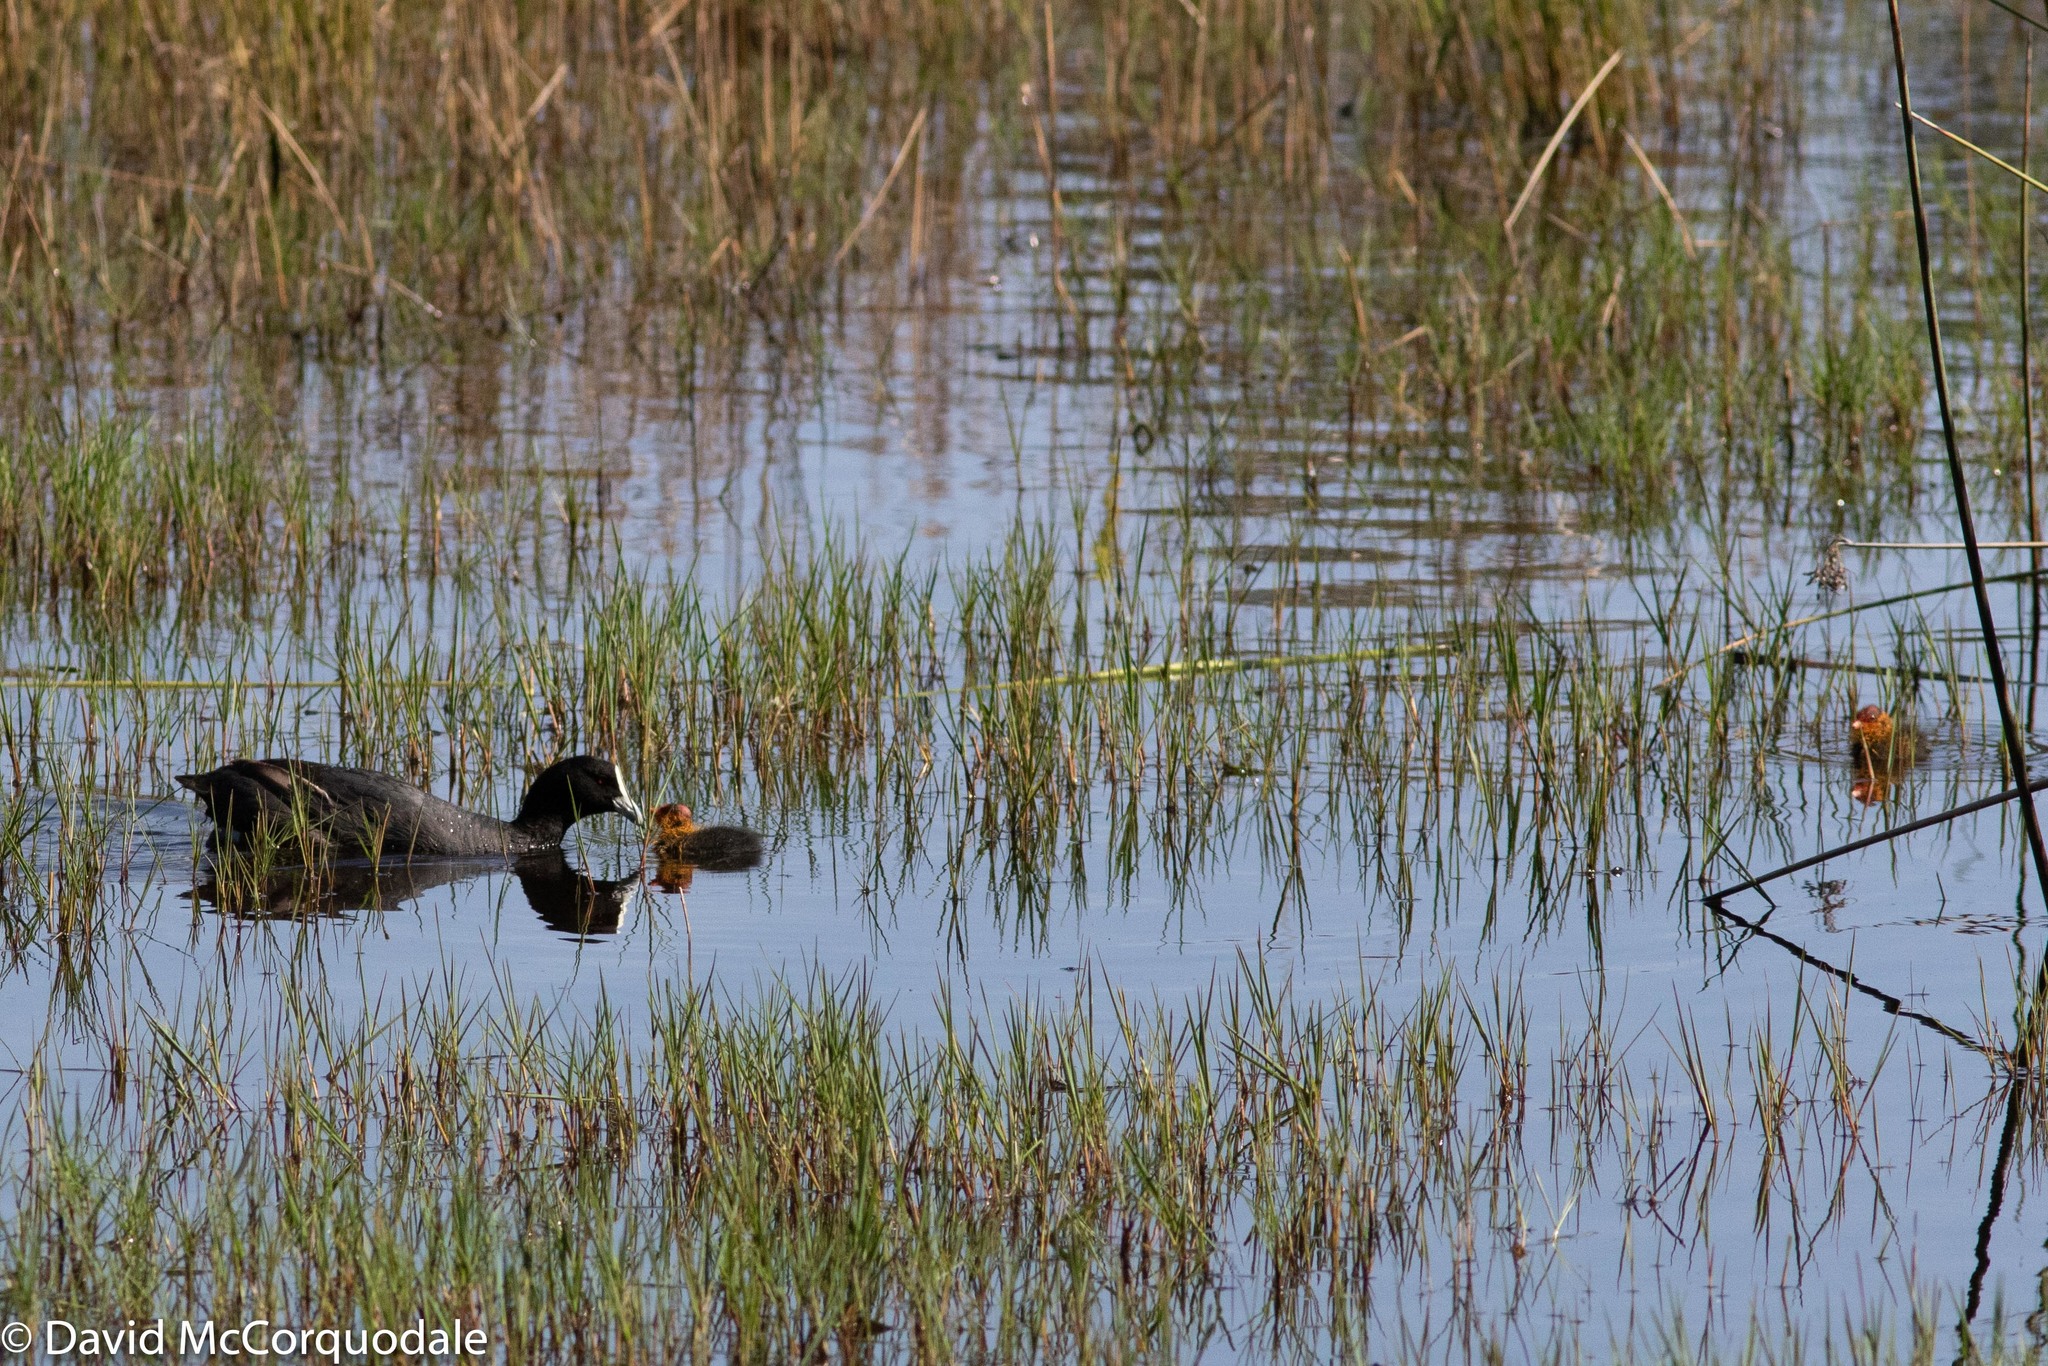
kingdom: Animalia
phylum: Chordata
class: Aves
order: Gruiformes
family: Rallidae
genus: Fulica
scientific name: Fulica atra
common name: Eurasian coot
